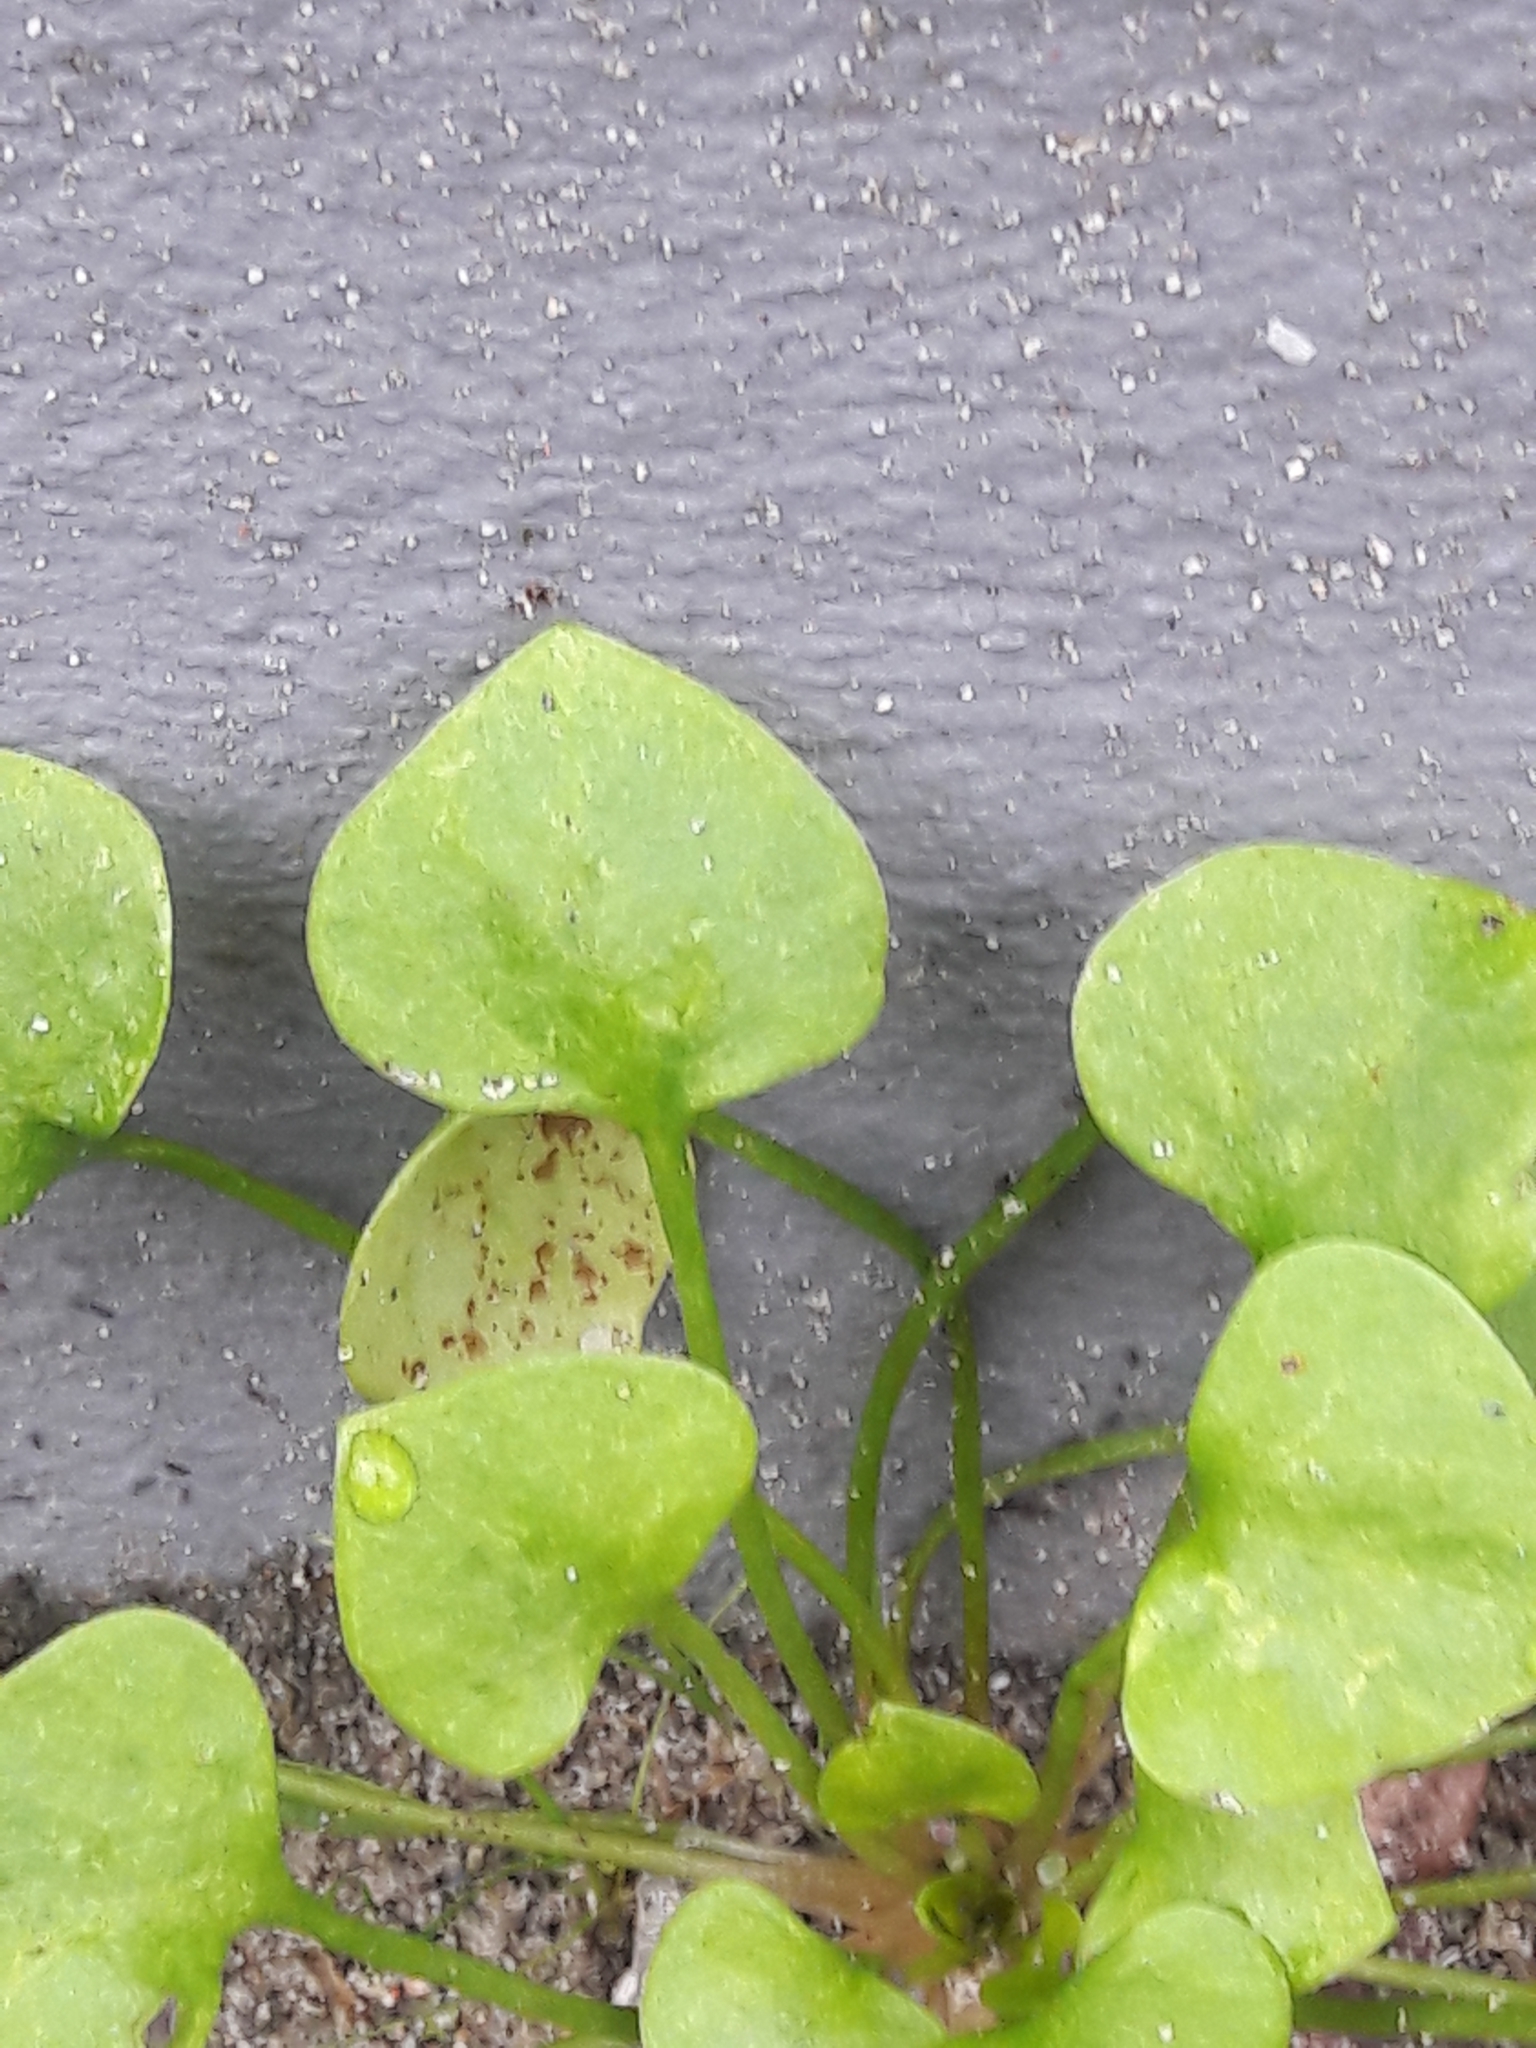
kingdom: Plantae
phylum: Tracheophyta
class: Magnoliopsida
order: Caryophyllales
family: Montiaceae
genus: Claytonia
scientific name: Claytonia perfoliata
